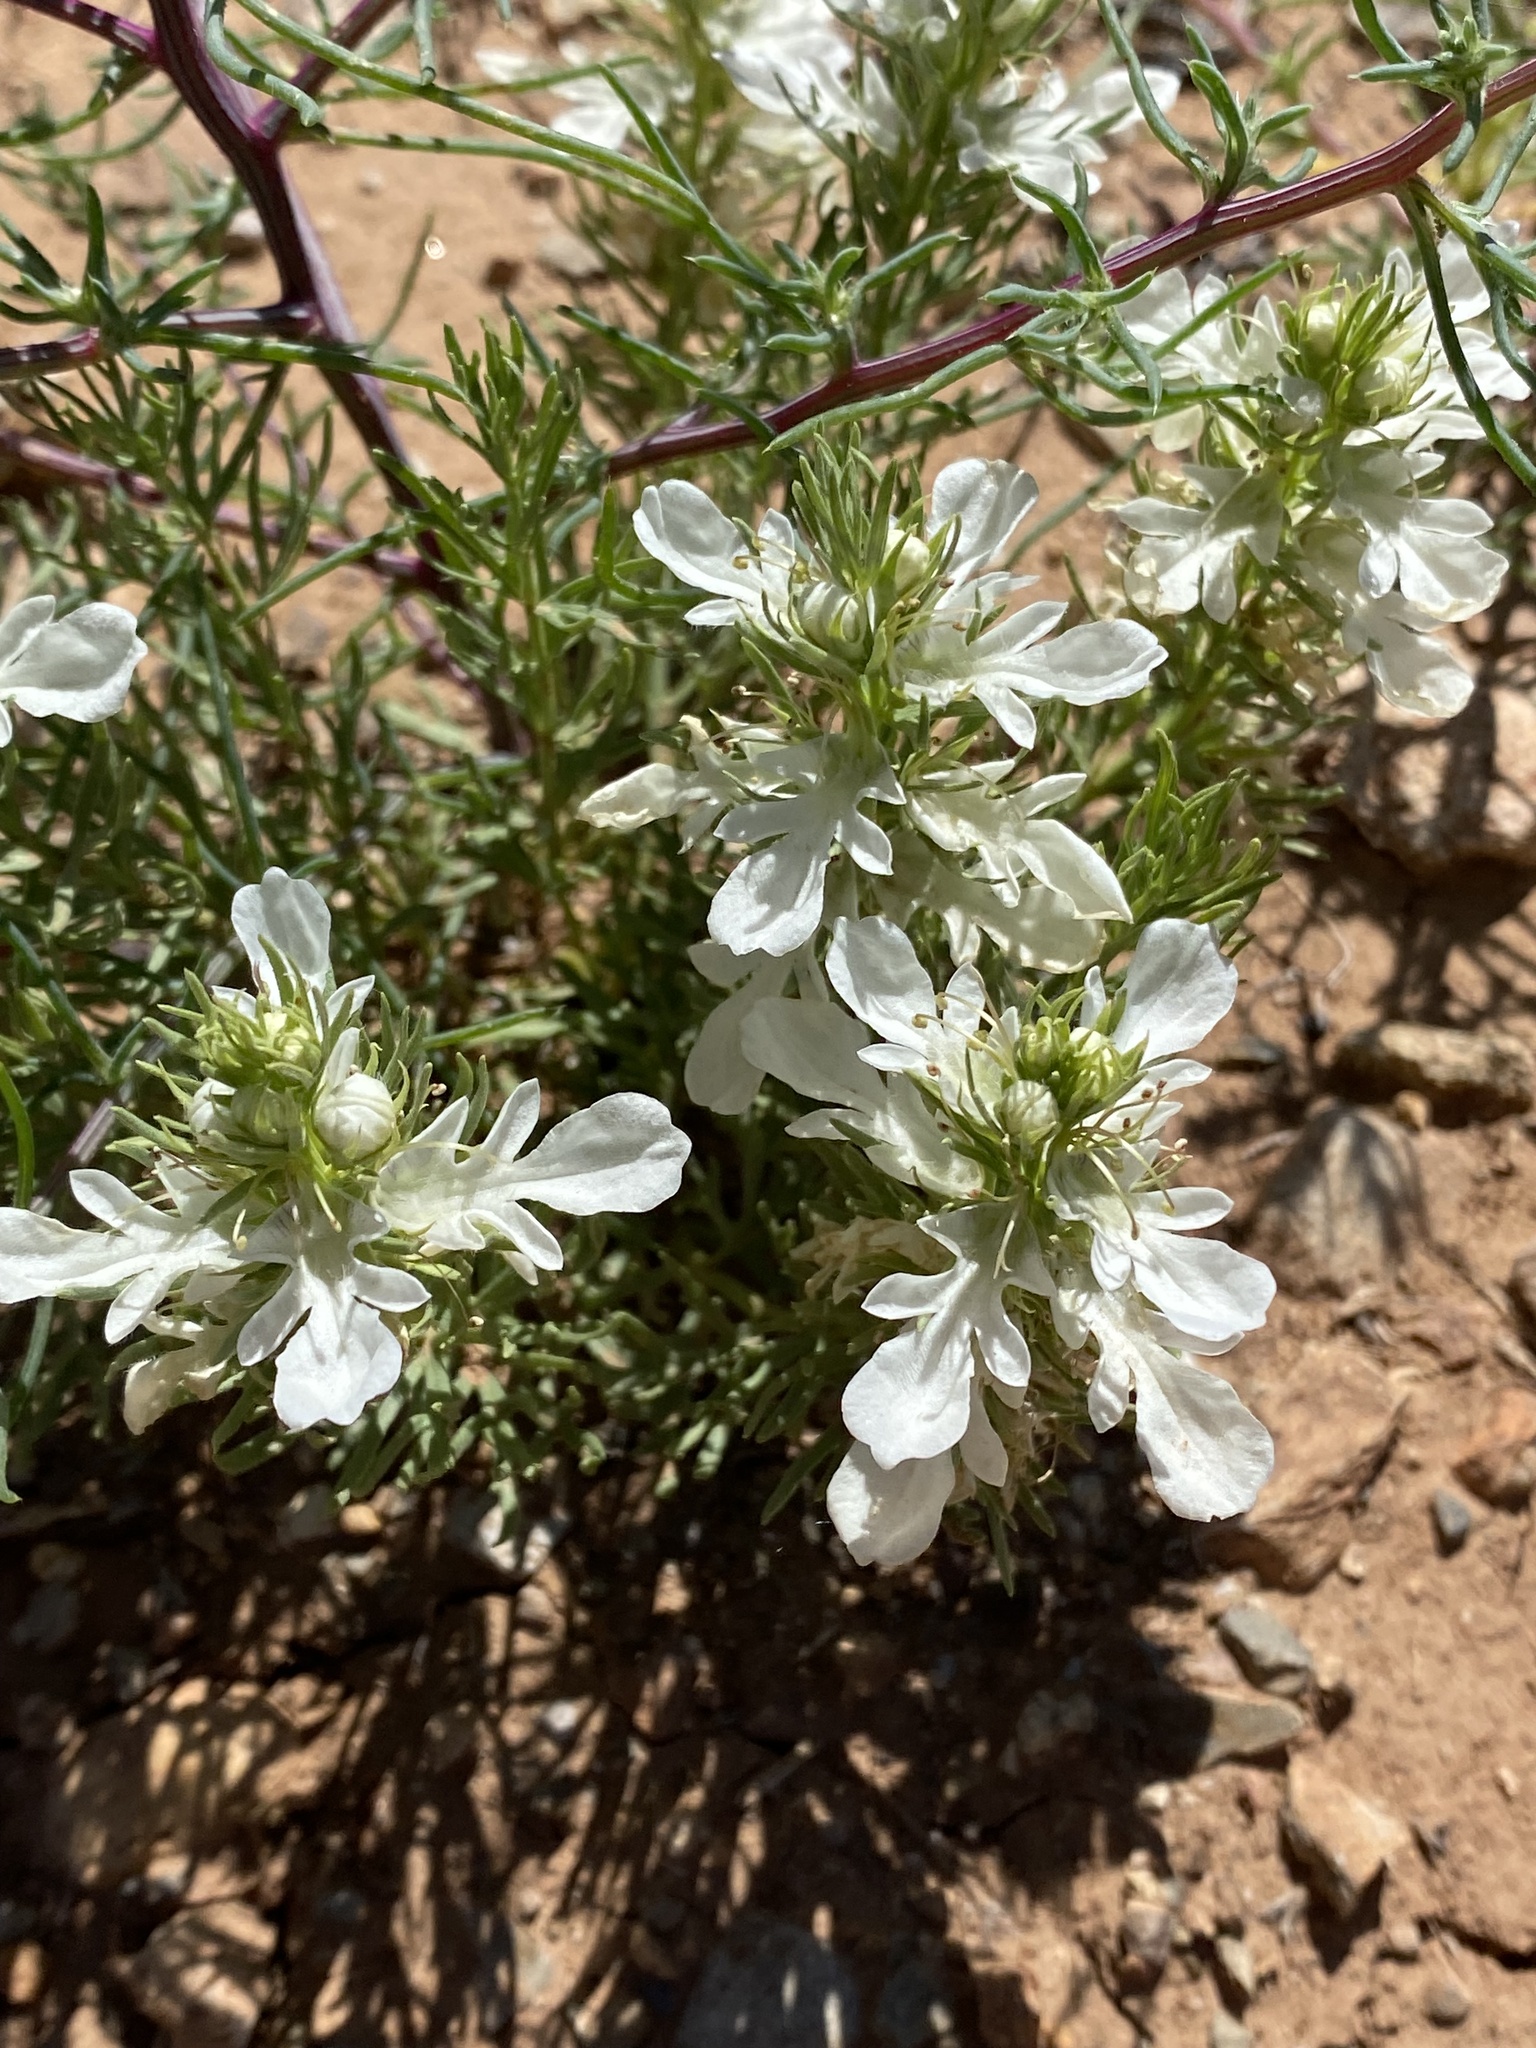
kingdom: Plantae
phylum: Tracheophyta
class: Magnoliopsida
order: Lamiales
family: Lamiaceae
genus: Teucrium
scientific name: Teucrium laciniatum
